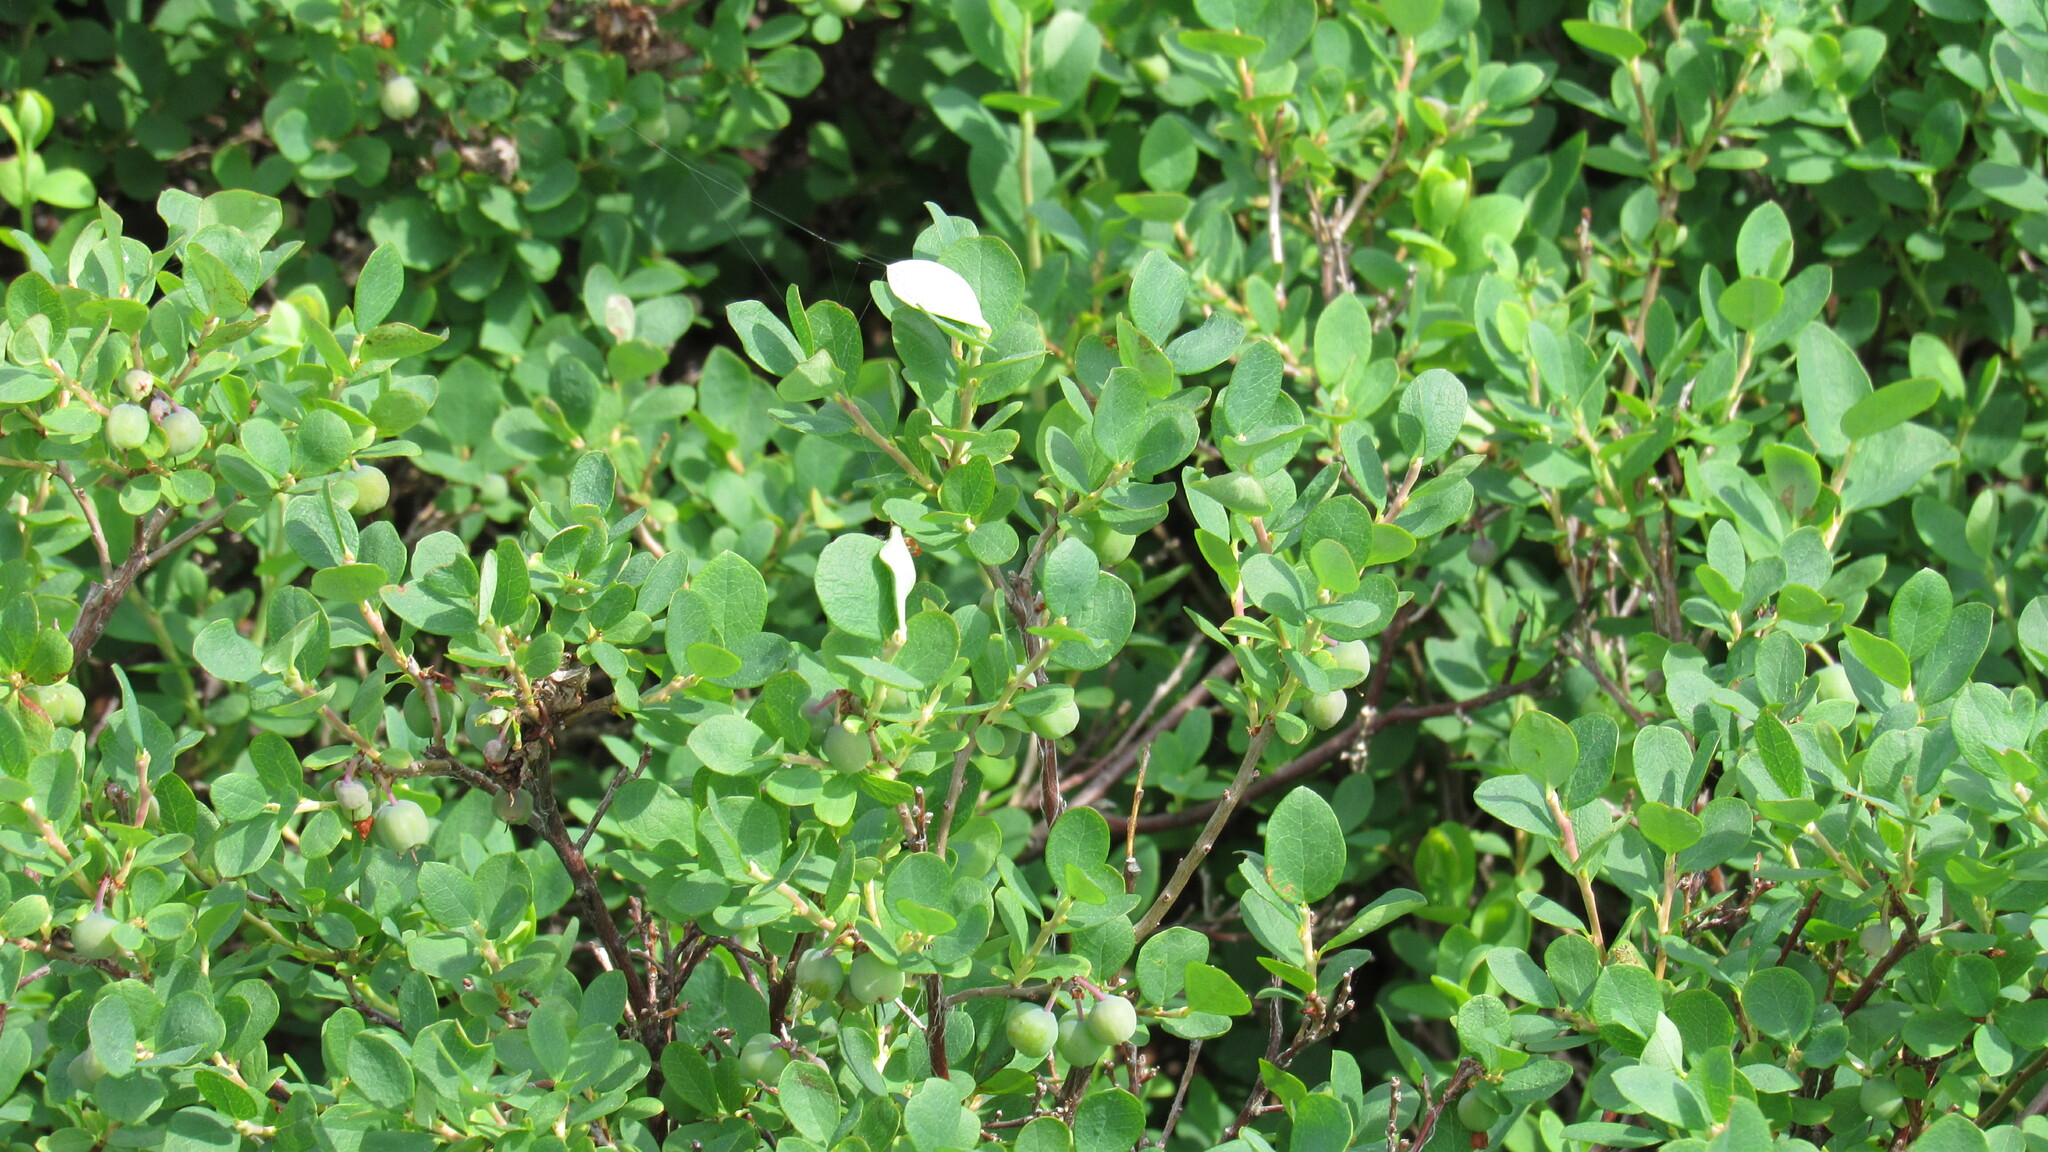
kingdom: Plantae
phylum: Tracheophyta
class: Magnoliopsida
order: Ericales
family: Ericaceae
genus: Vaccinium
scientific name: Vaccinium uliginosum
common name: Bog bilberry
